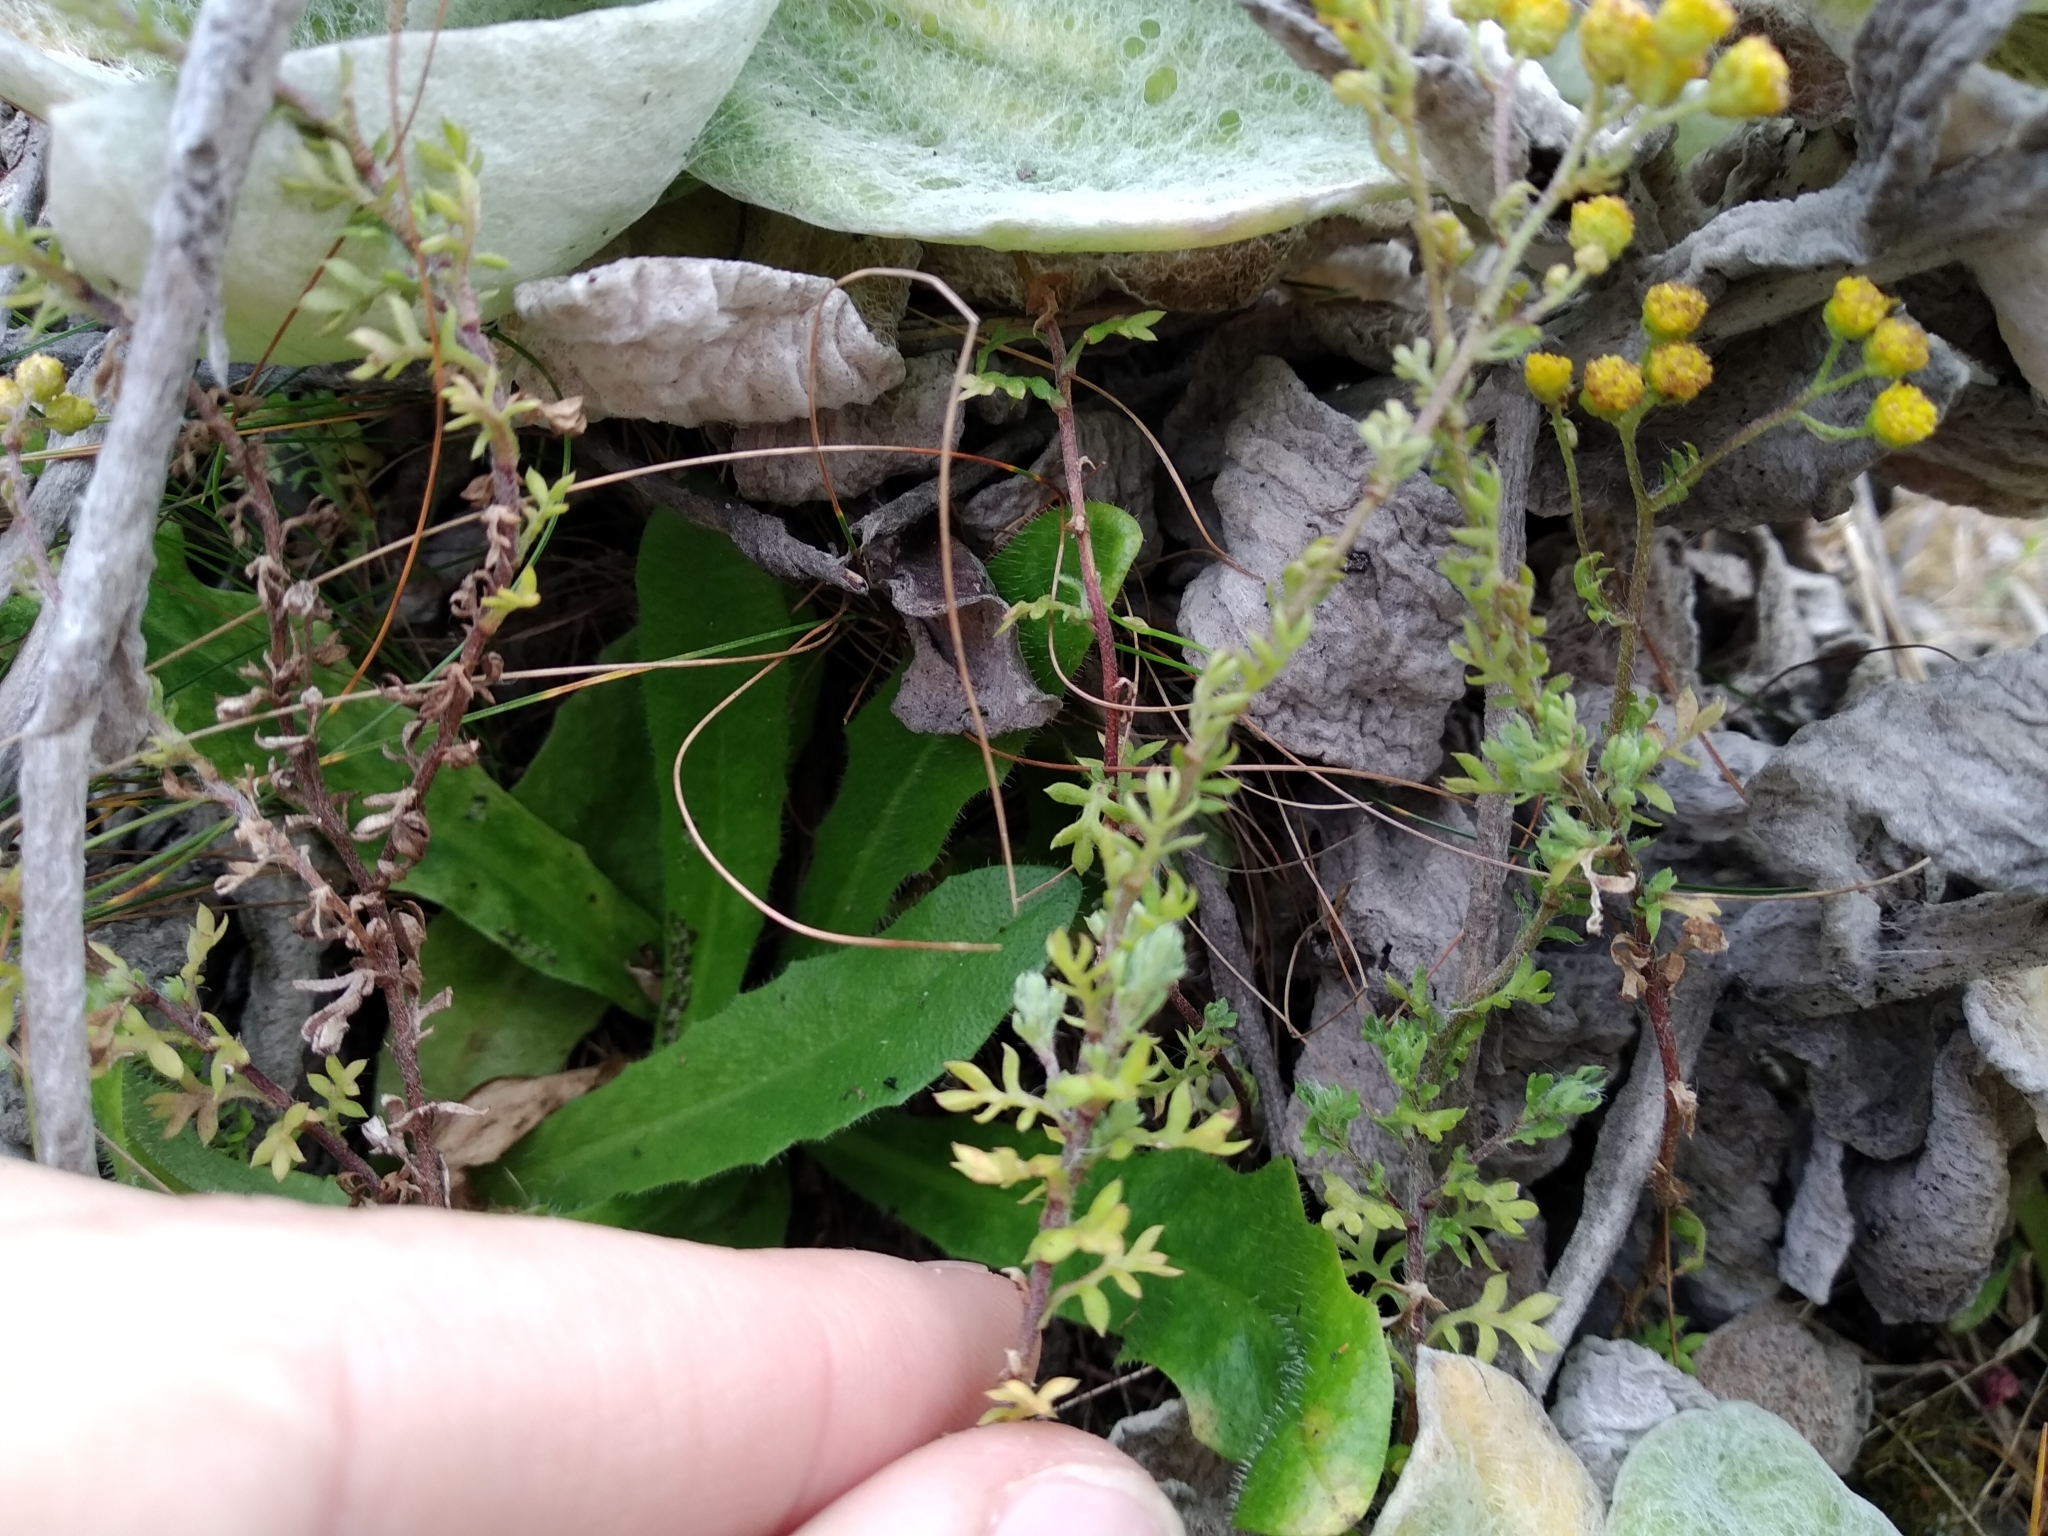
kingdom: Plantae
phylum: Tracheophyta
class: Magnoliopsida
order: Asterales
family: Asteraceae
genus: Hippia
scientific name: Hippia pilosa
